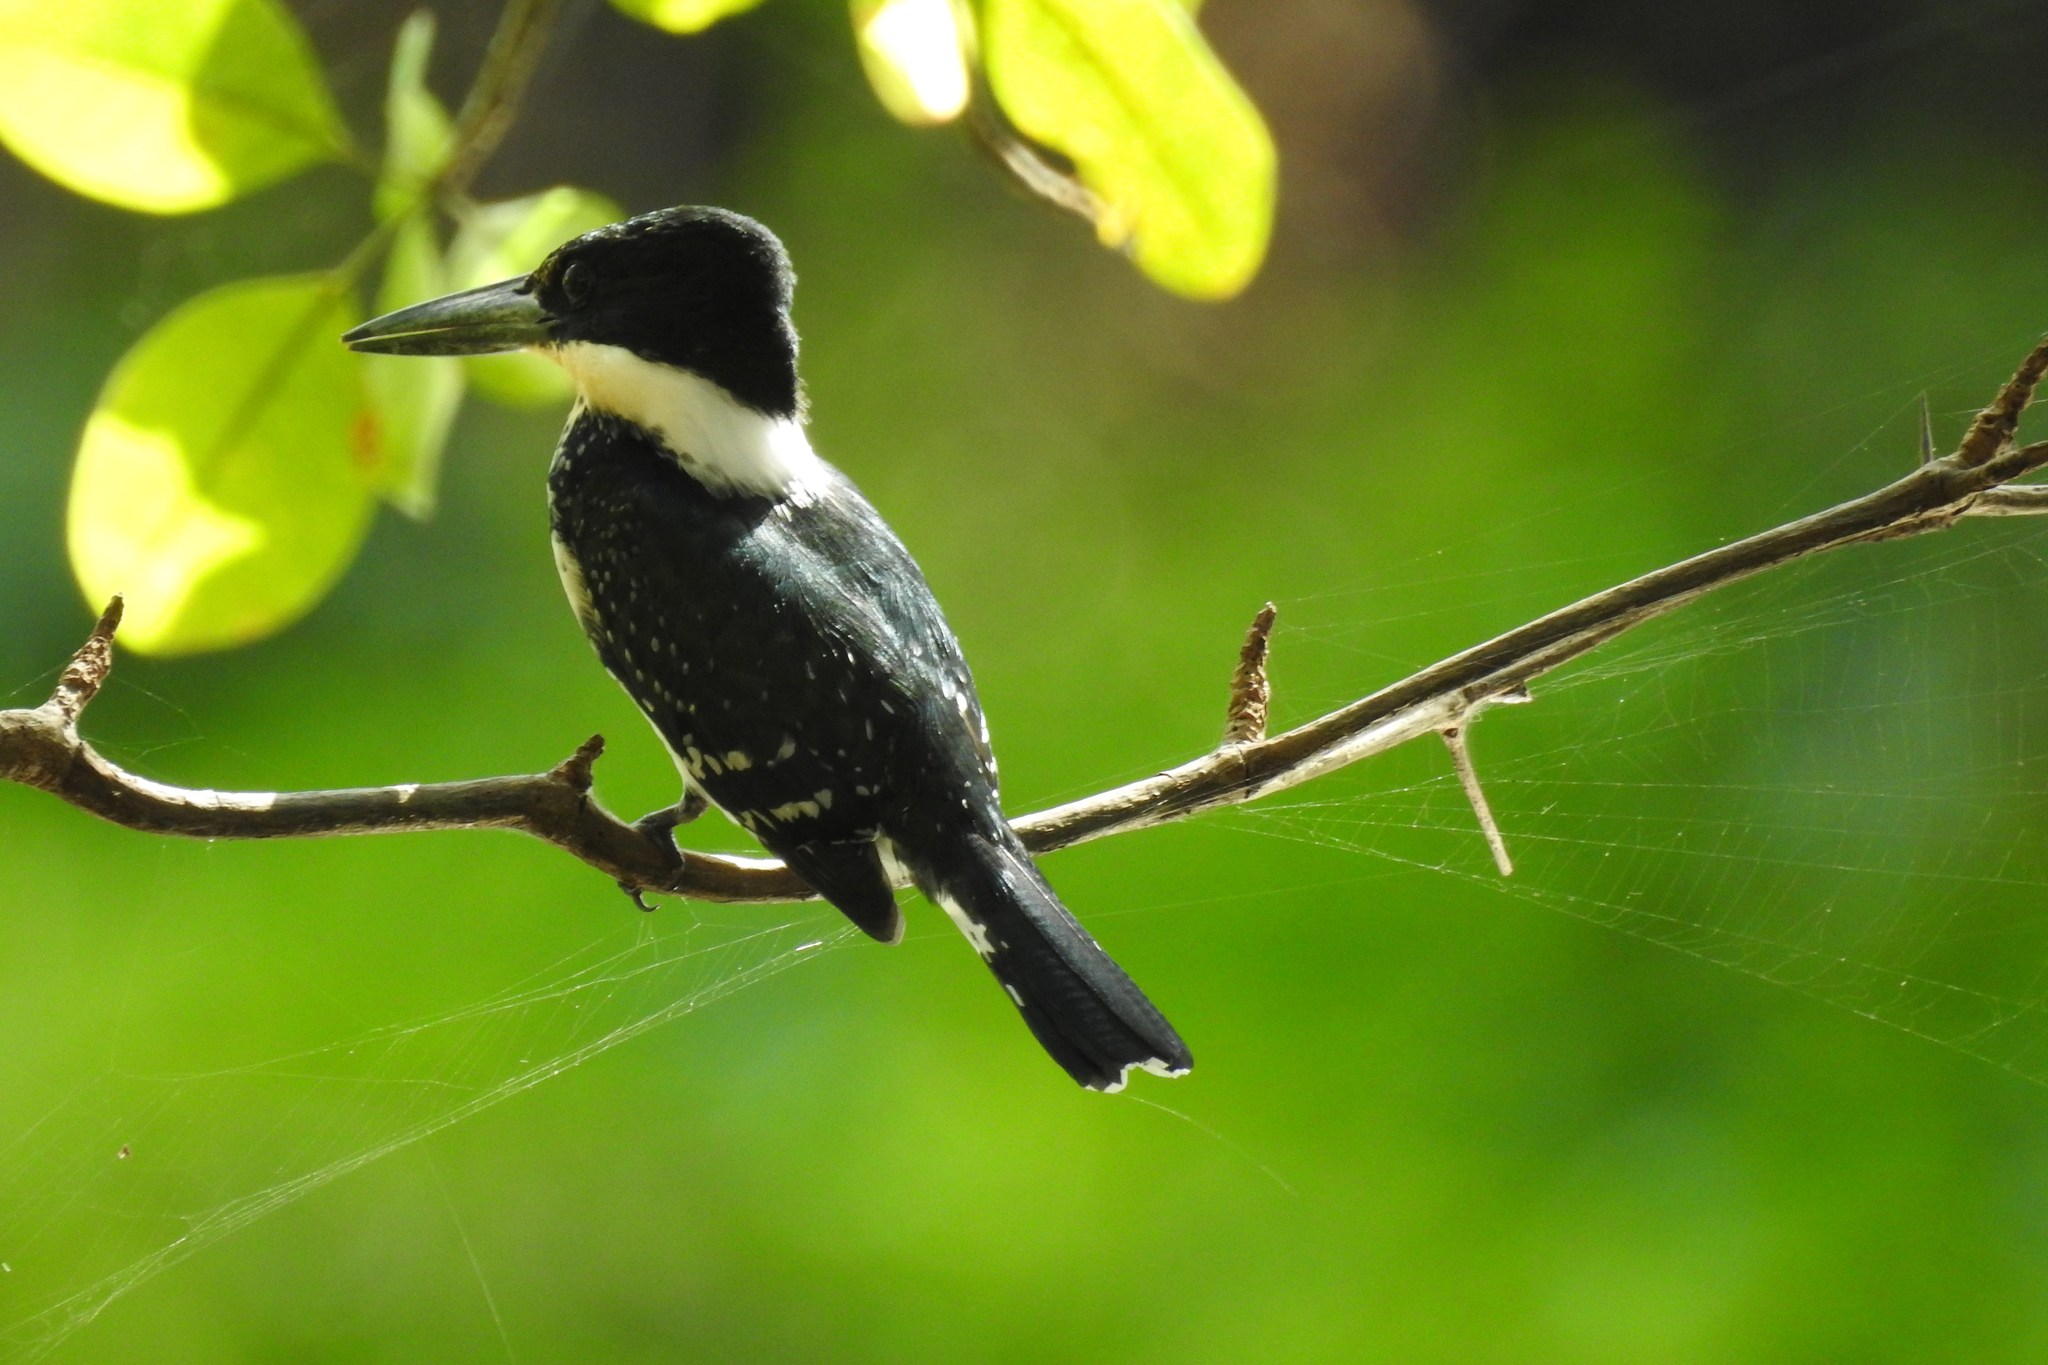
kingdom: Animalia
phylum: Chordata
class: Aves
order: Coraciiformes
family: Alcedinidae
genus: Chloroceryle
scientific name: Chloroceryle americana
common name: Green kingfisher
